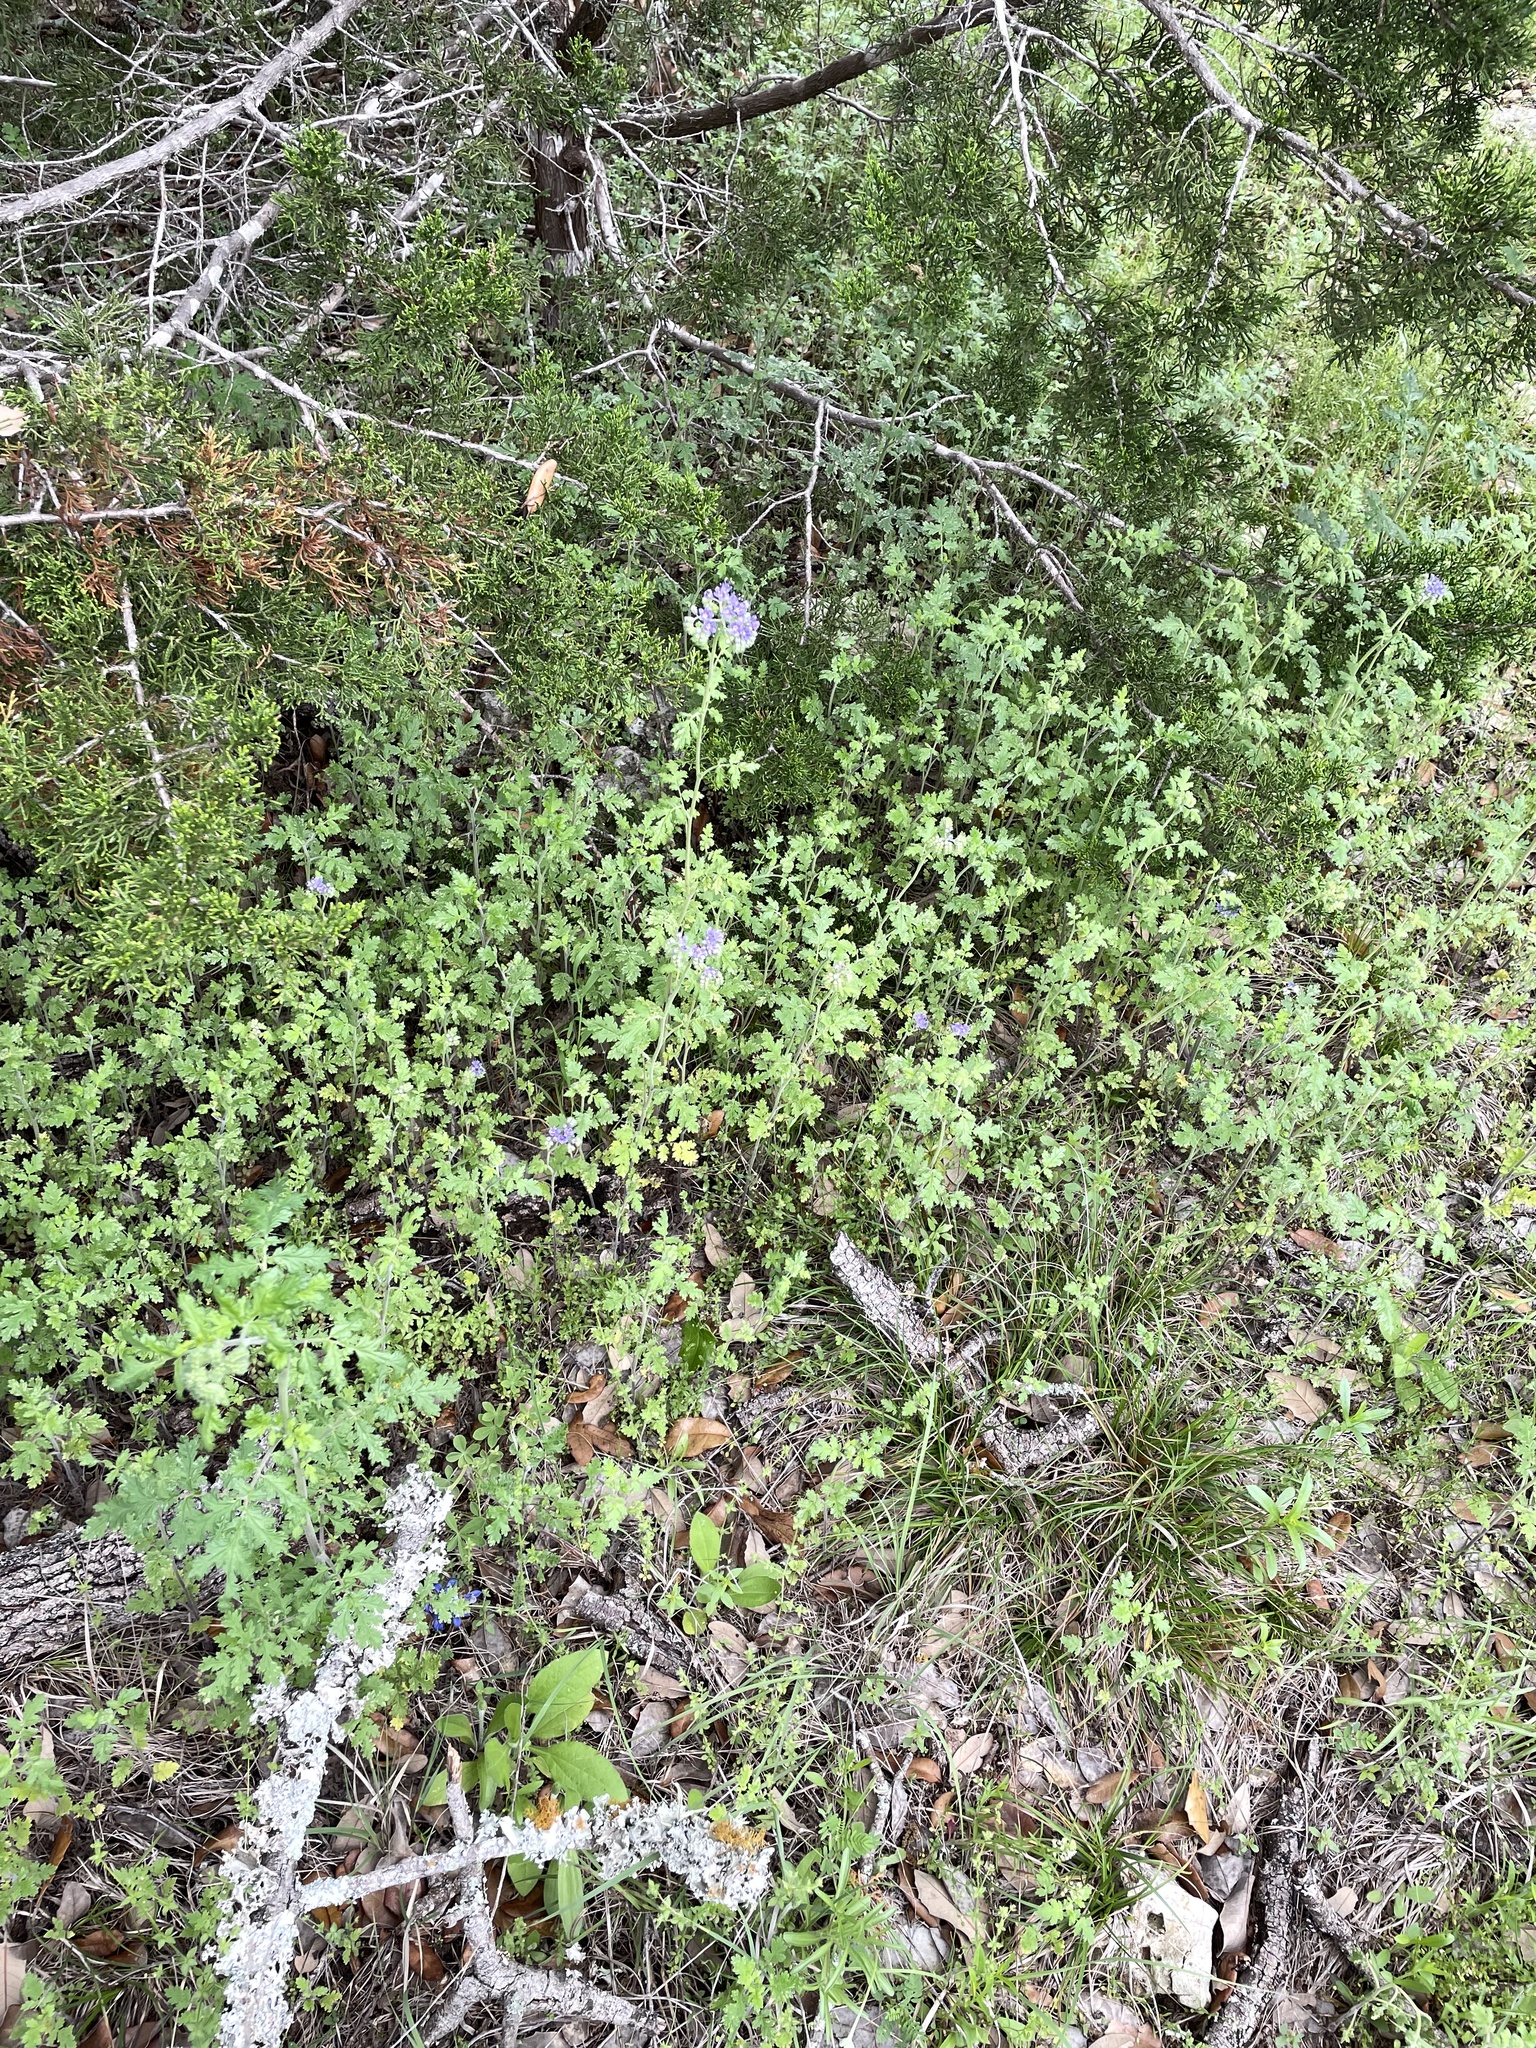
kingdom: Plantae
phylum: Tracheophyta
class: Magnoliopsida
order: Boraginales
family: Hydrophyllaceae
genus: Phacelia
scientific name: Phacelia congesta
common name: Blue curls
